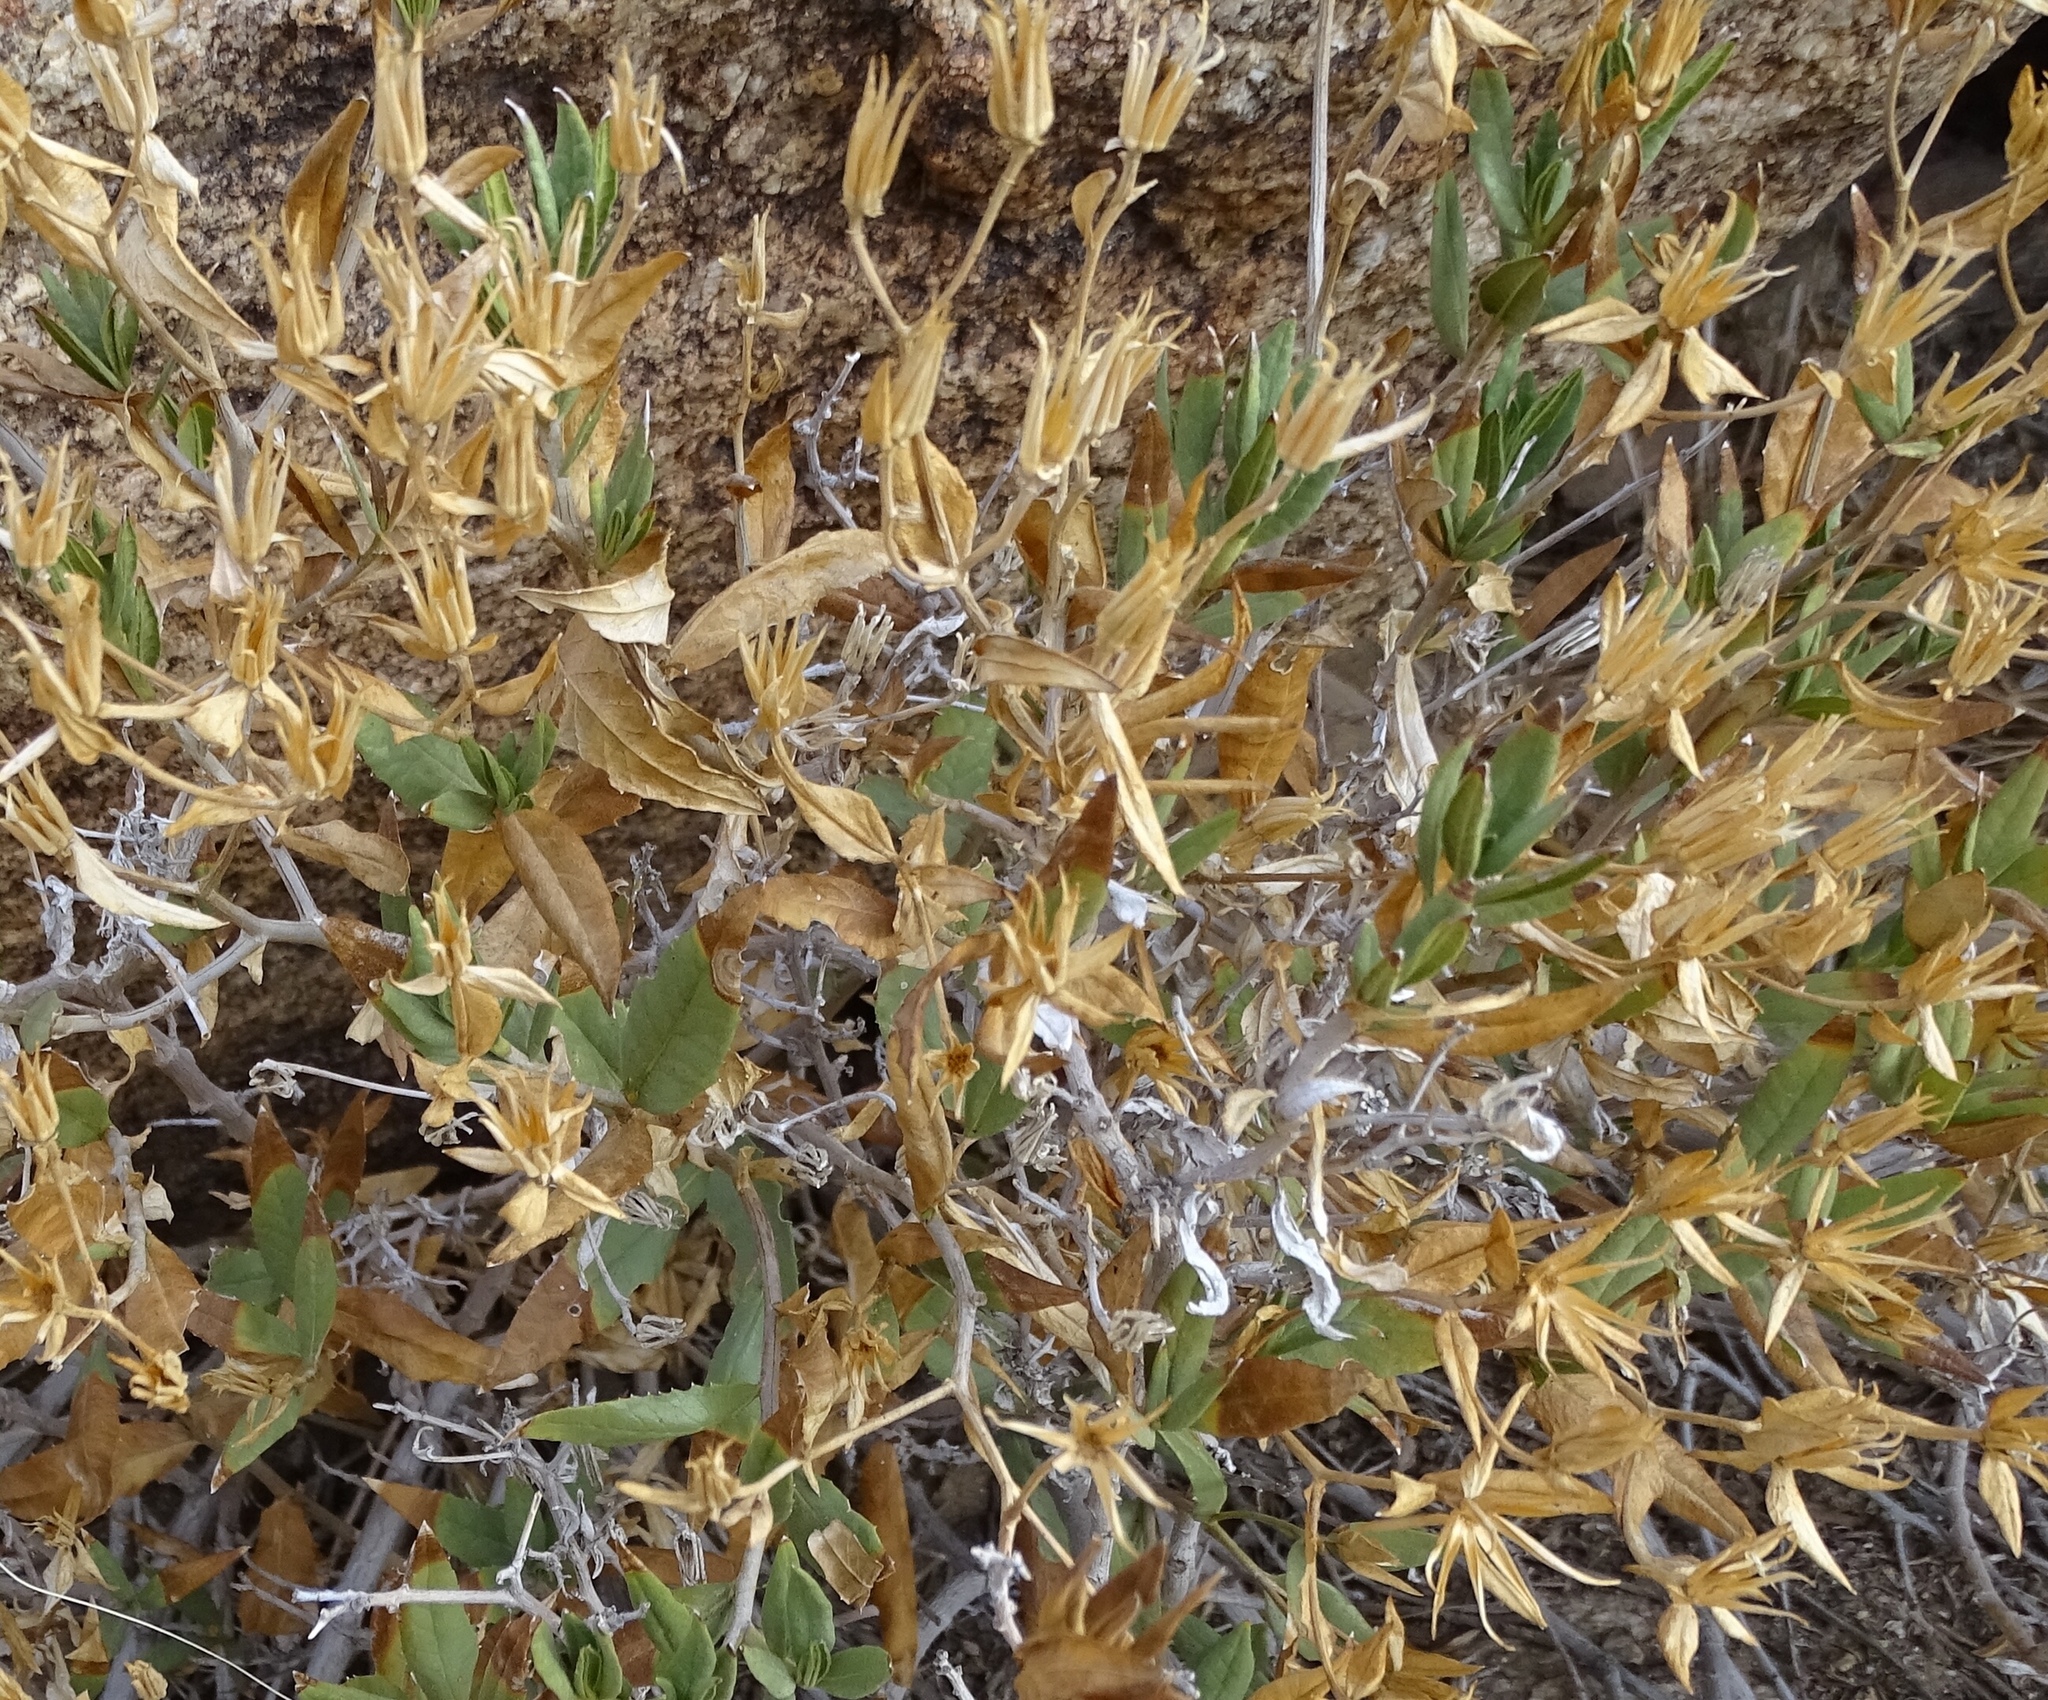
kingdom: Plantae
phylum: Tracheophyta
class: Magnoliopsida
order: Asterales
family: Asteraceae
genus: Trixis
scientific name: Trixis californica
